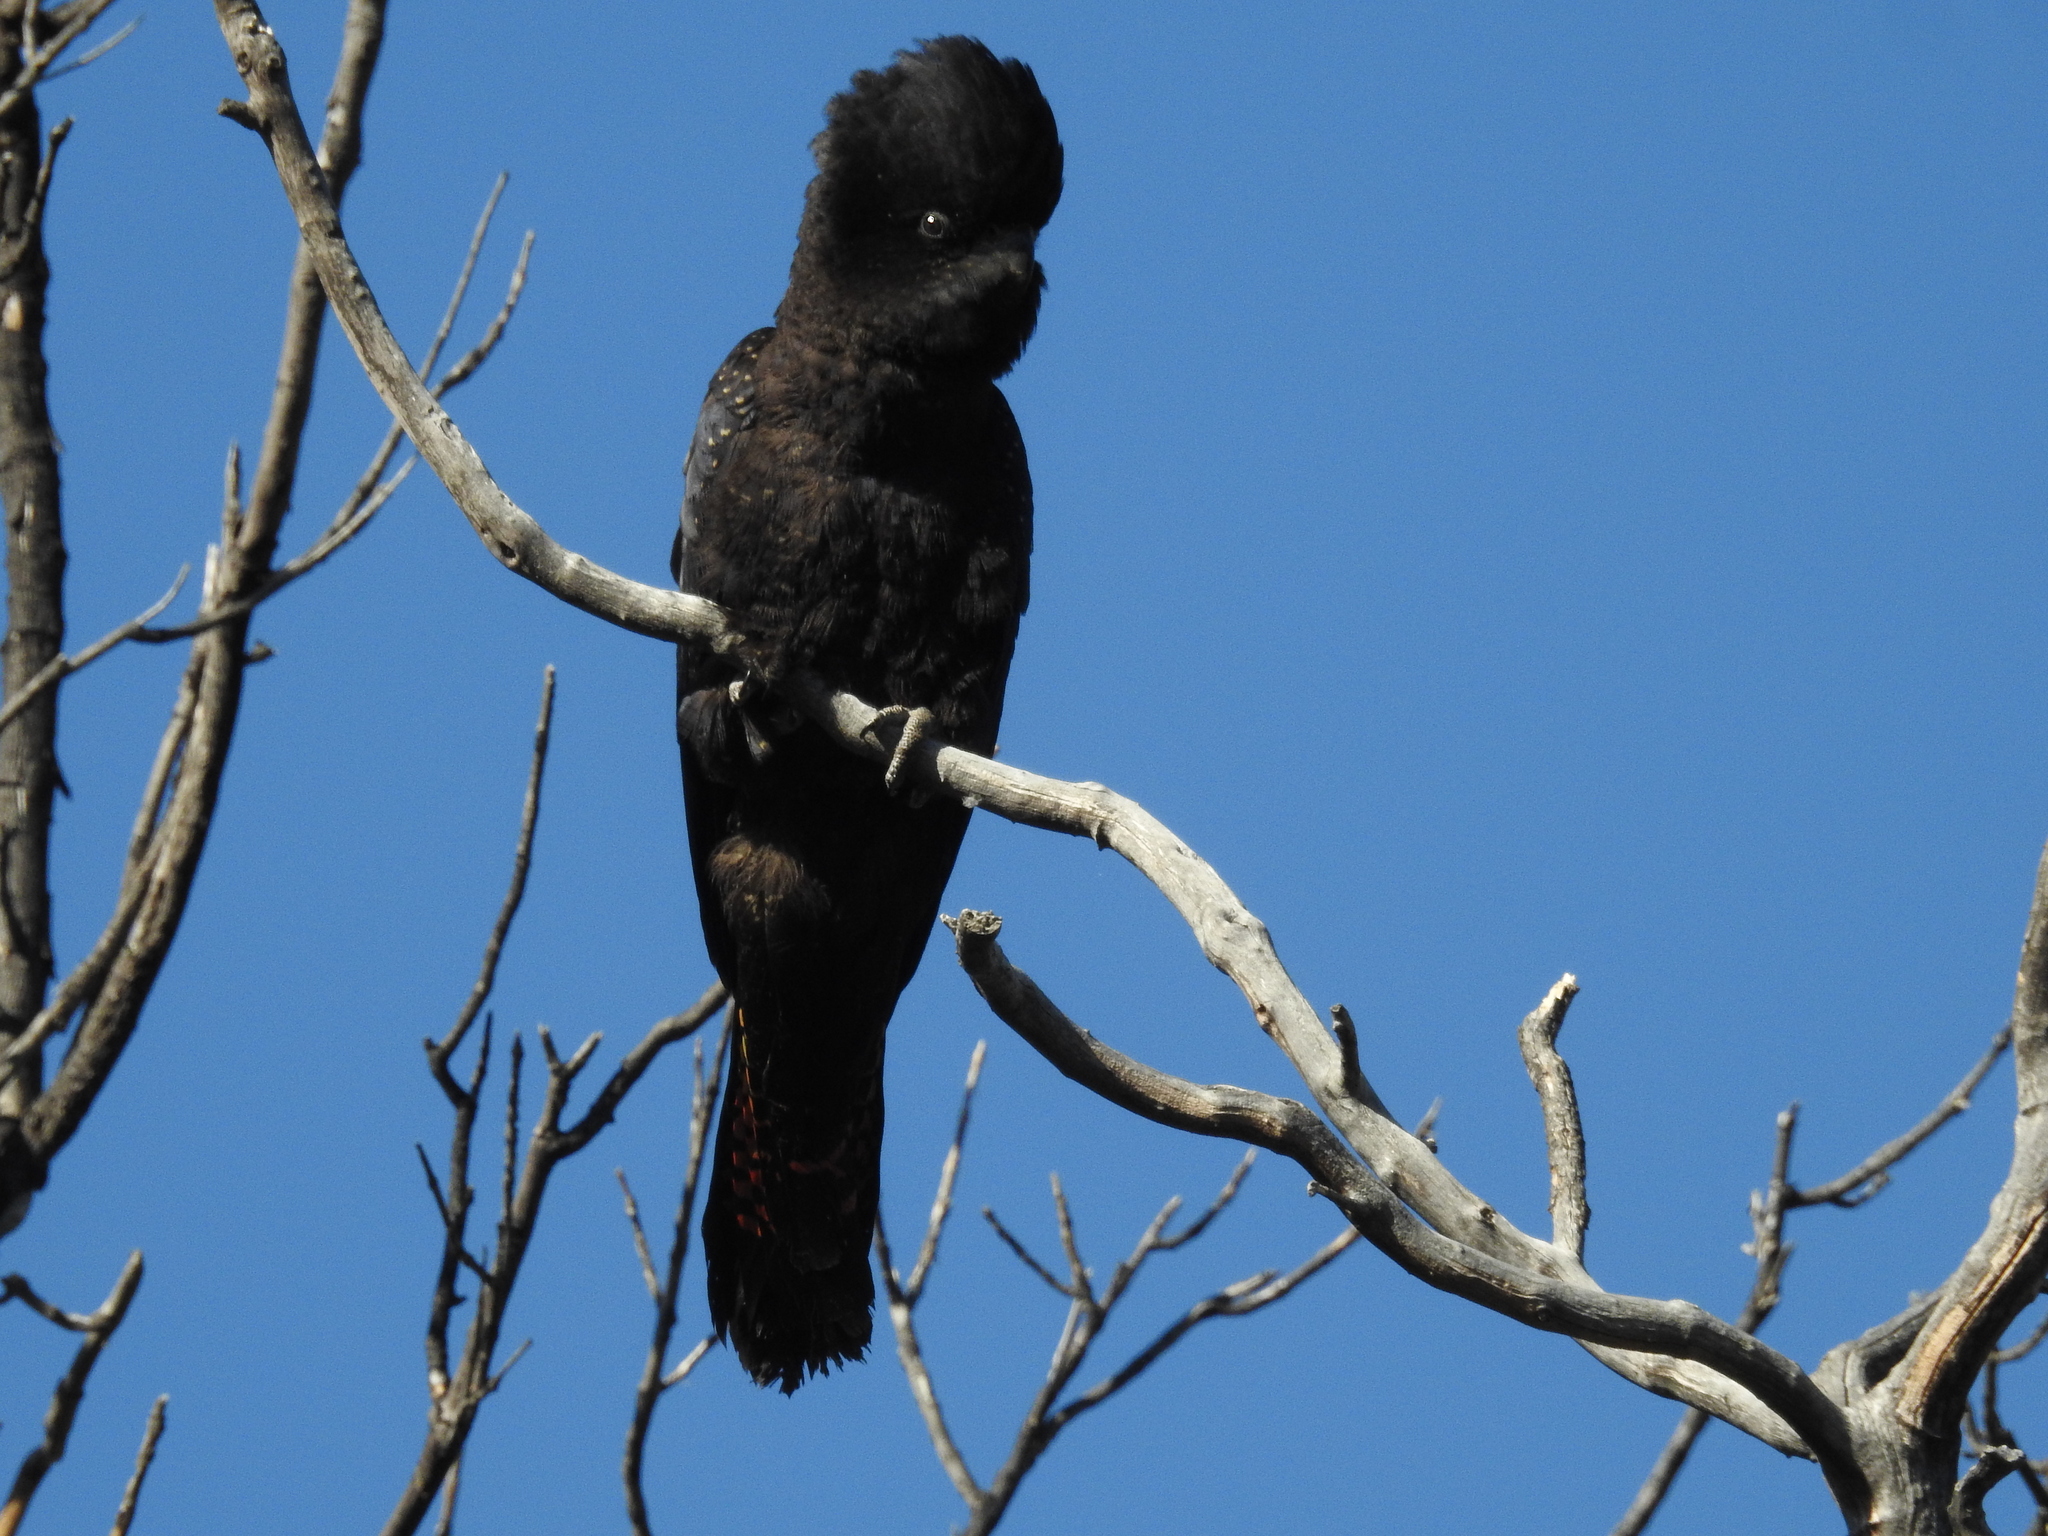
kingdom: Animalia
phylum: Chordata
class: Aves
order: Psittaciformes
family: Psittacidae
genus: Calyptorhynchus
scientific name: Calyptorhynchus banksii
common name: Red-tailed black cockatoo
